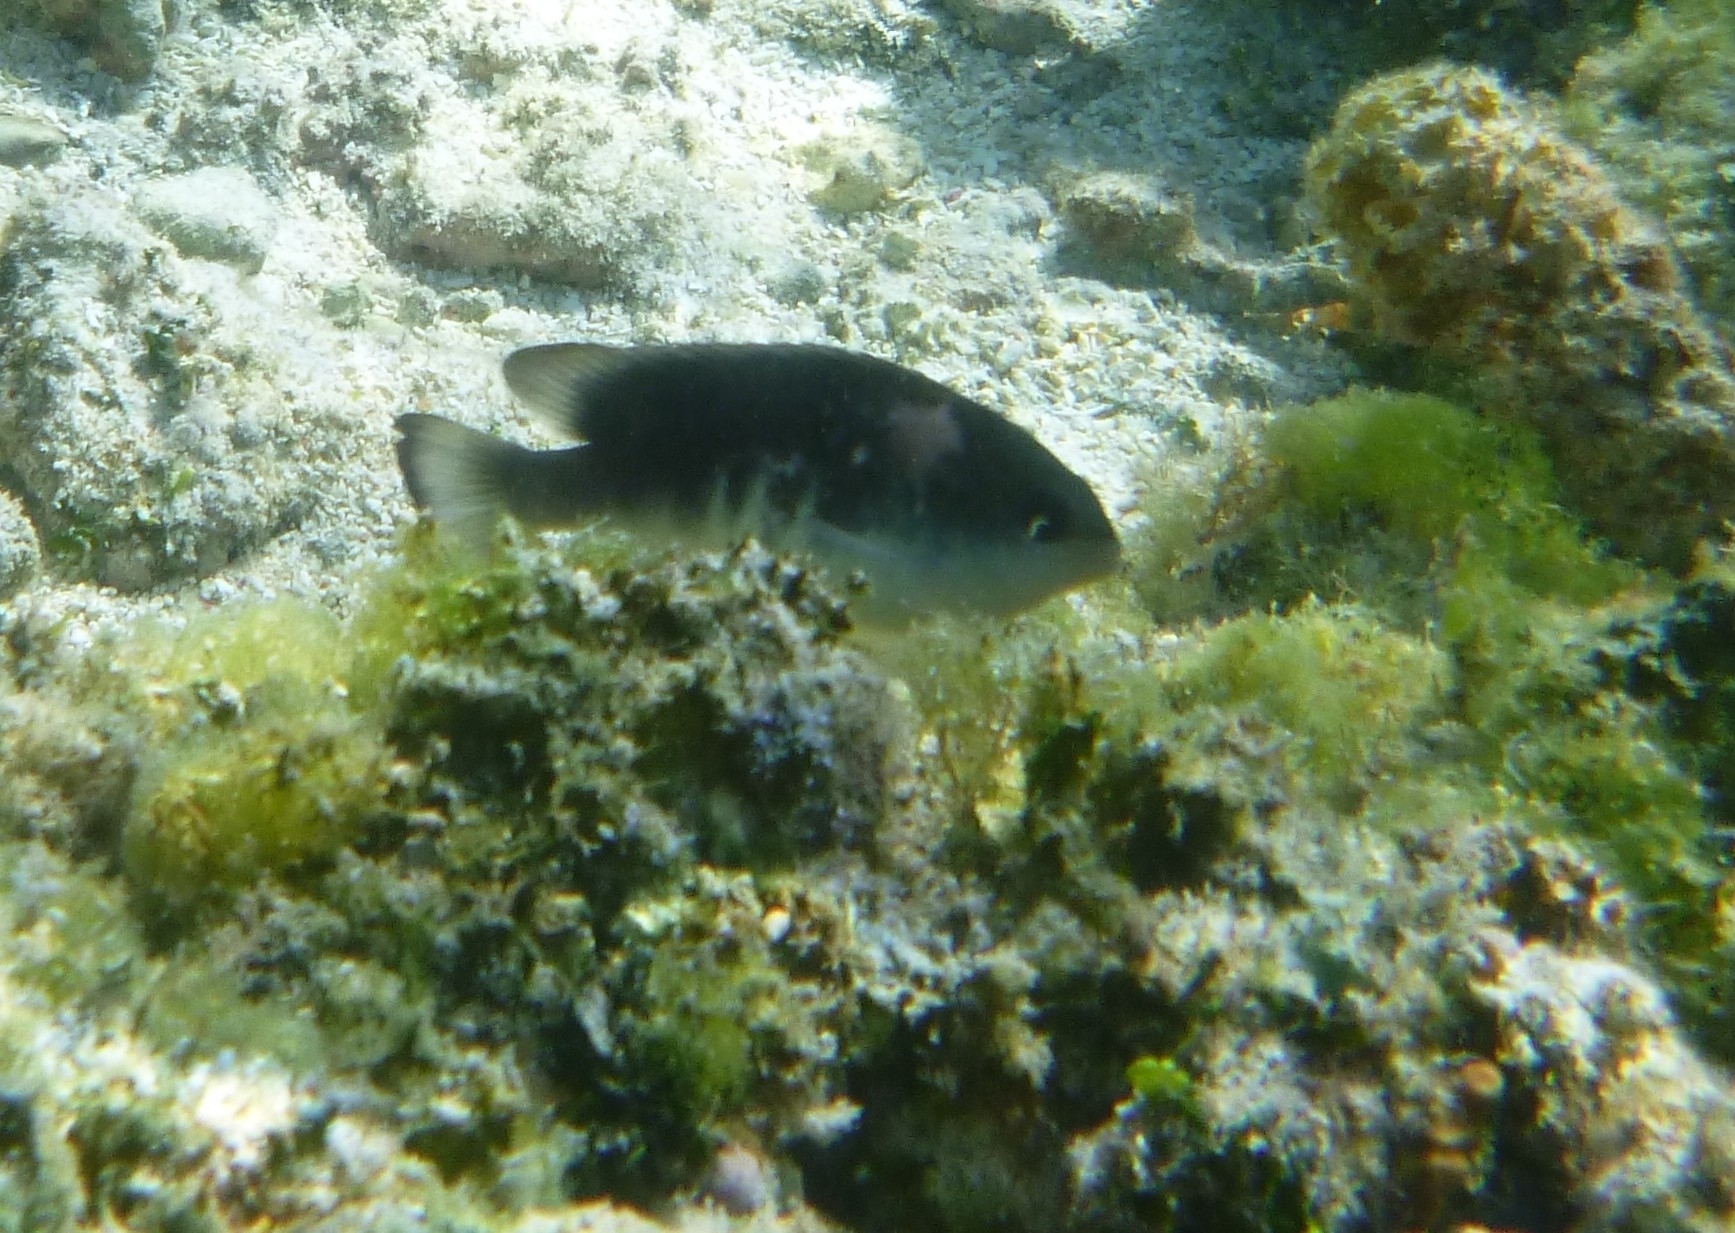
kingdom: Animalia
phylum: Chordata
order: Perciformes
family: Pomacentridae
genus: Chrysiptera
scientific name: Chrysiptera glauca
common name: Grey demoiselle
